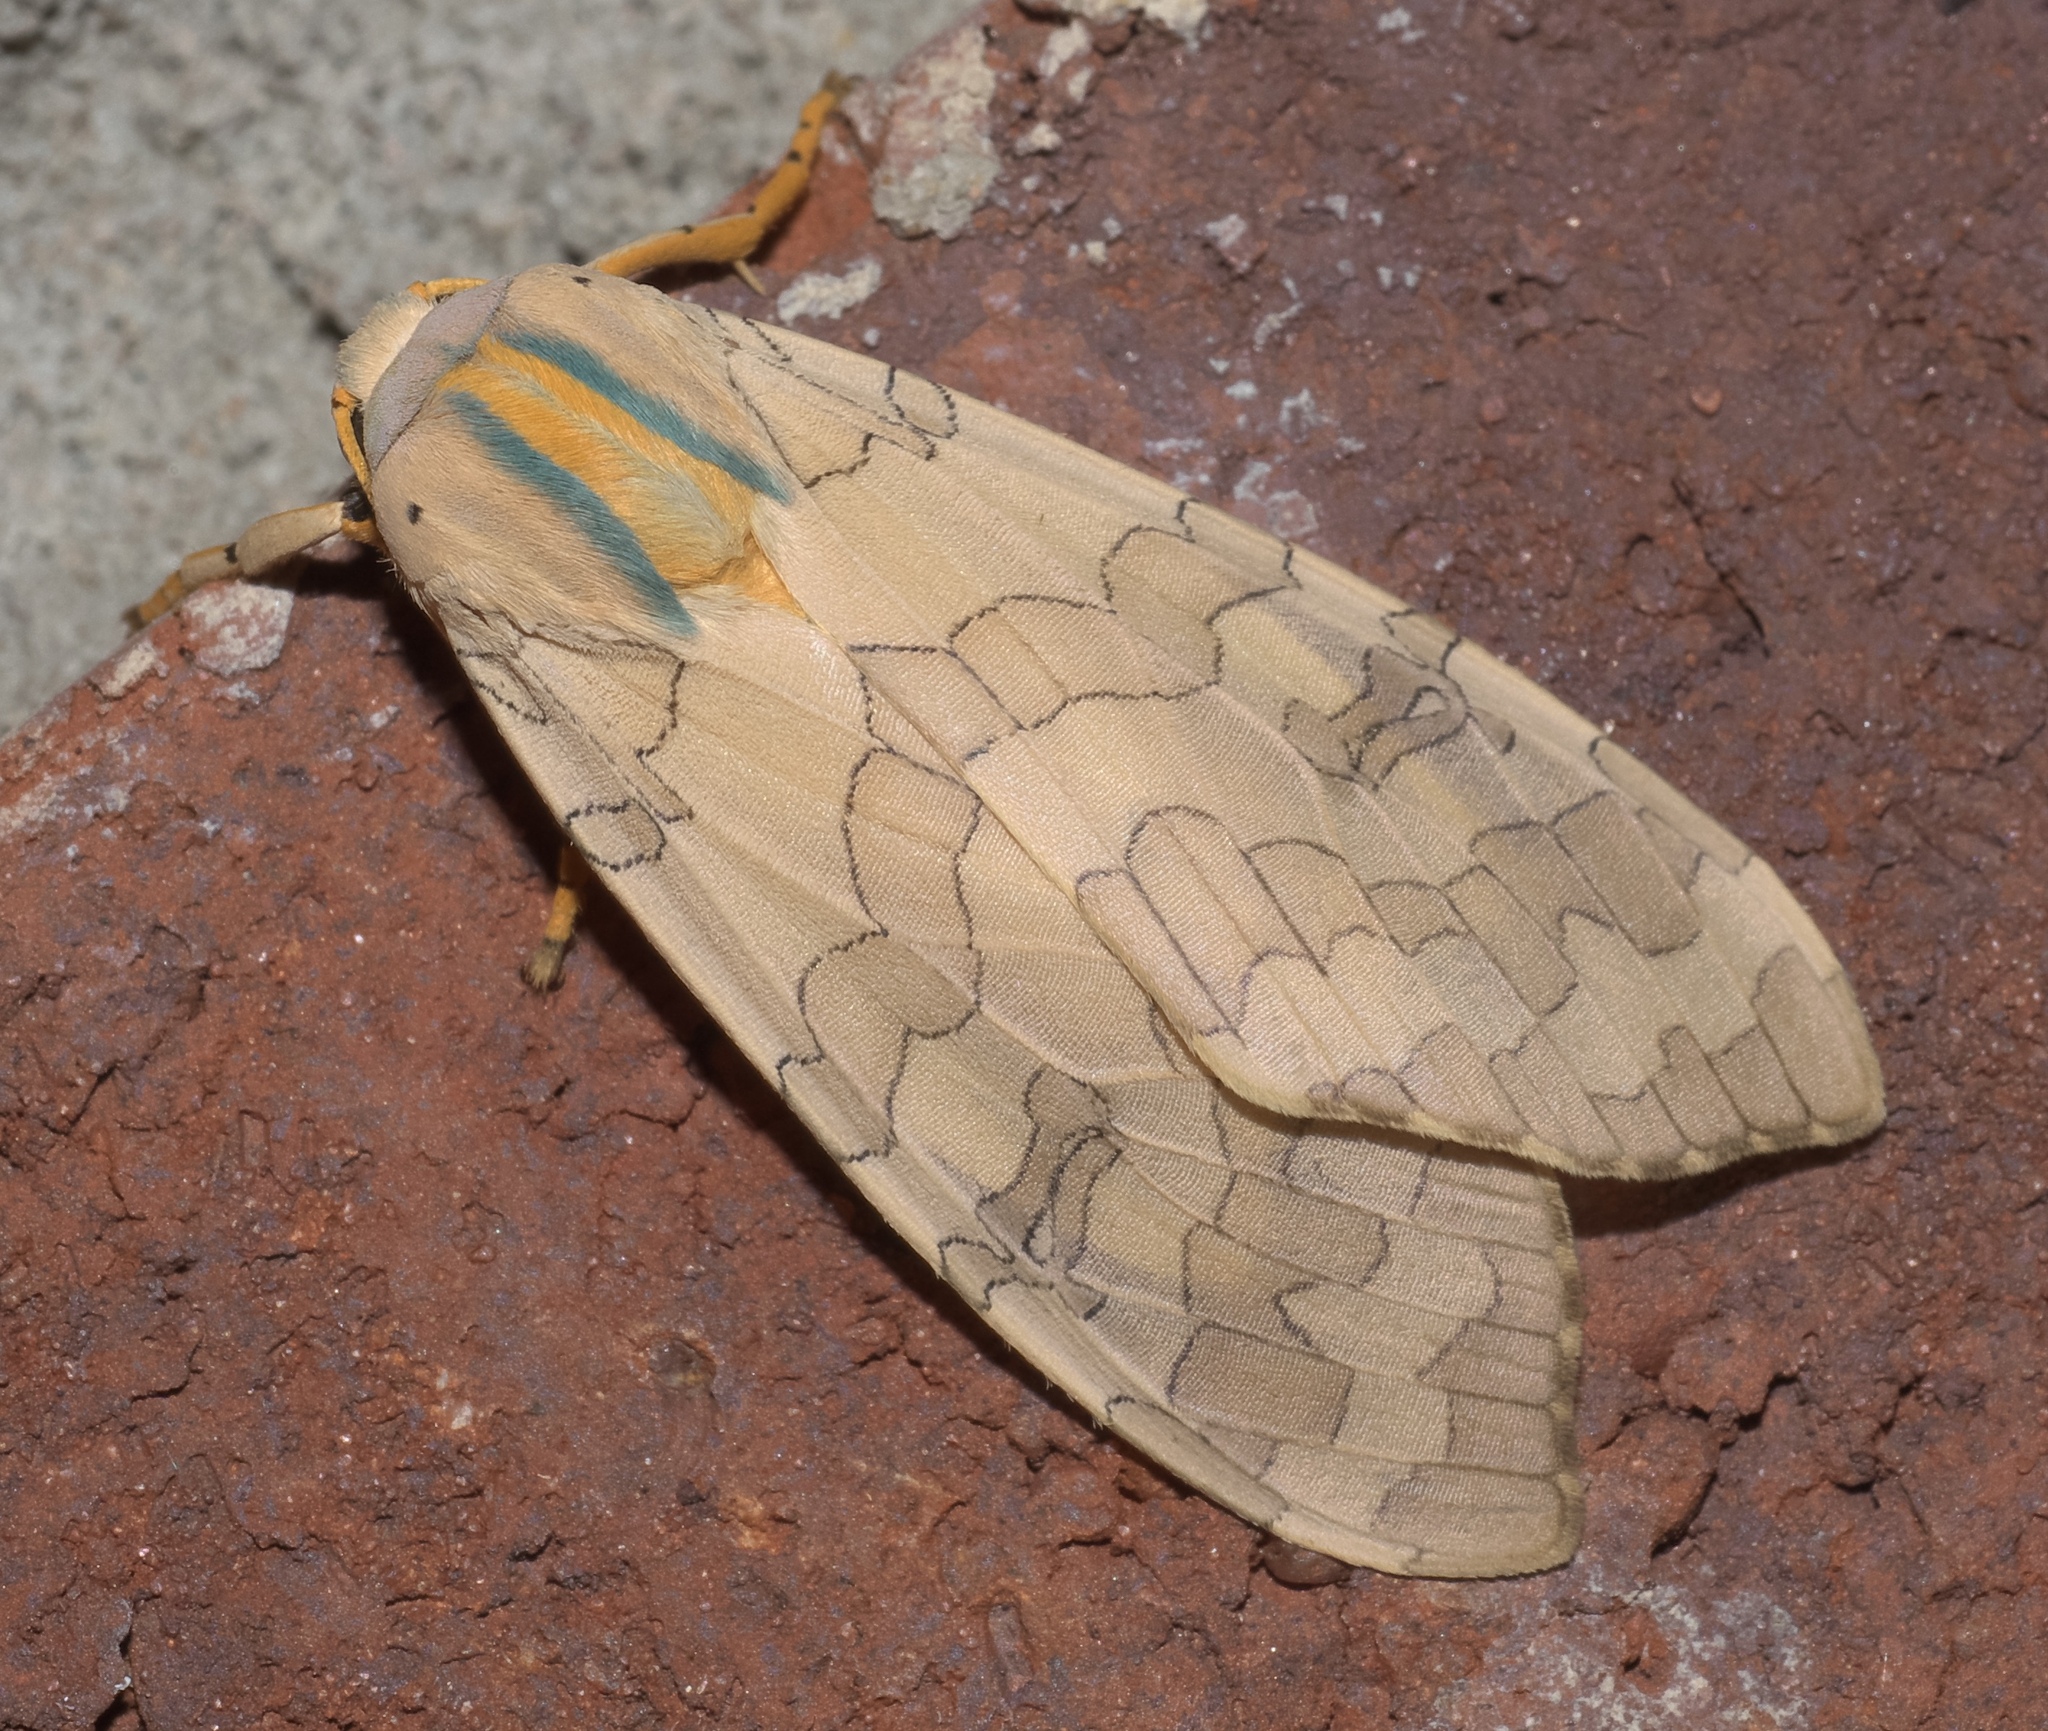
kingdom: Animalia
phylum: Arthropoda
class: Insecta
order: Lepidoptera
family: Erebidae
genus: Halysidota
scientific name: Halysidota
